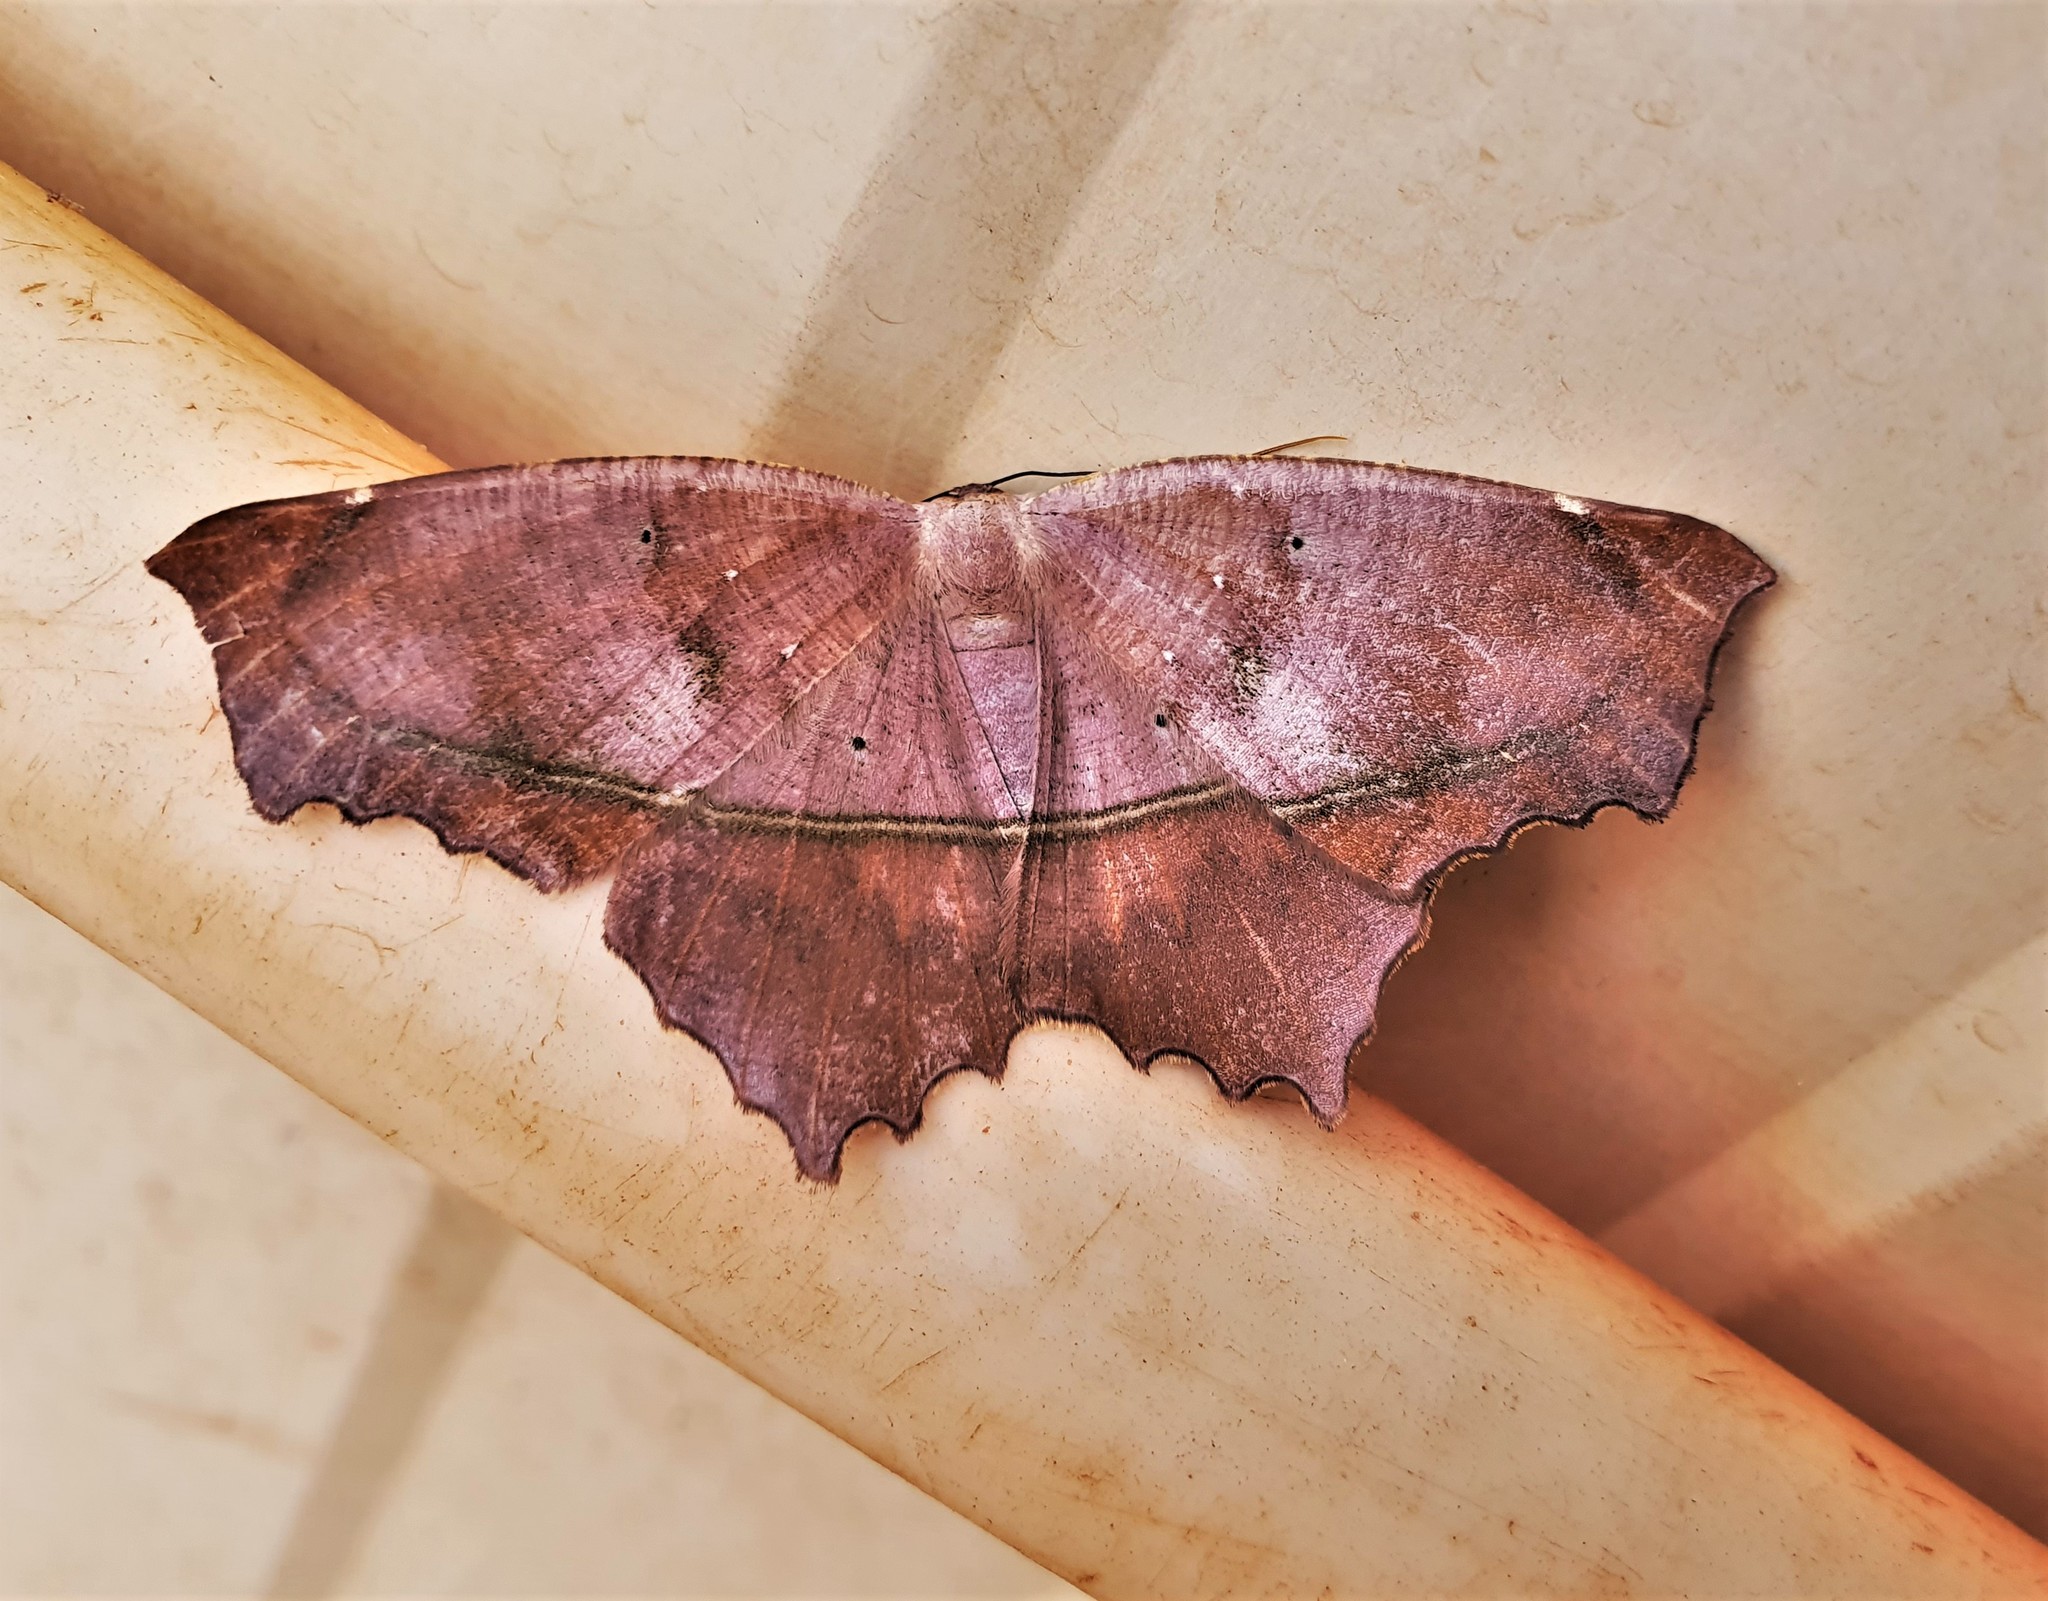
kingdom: Animalia
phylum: Arthropoda
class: Insecta
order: Lepidoptera
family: Geometridae
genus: Trotopera
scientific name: Trotopera maranharia
